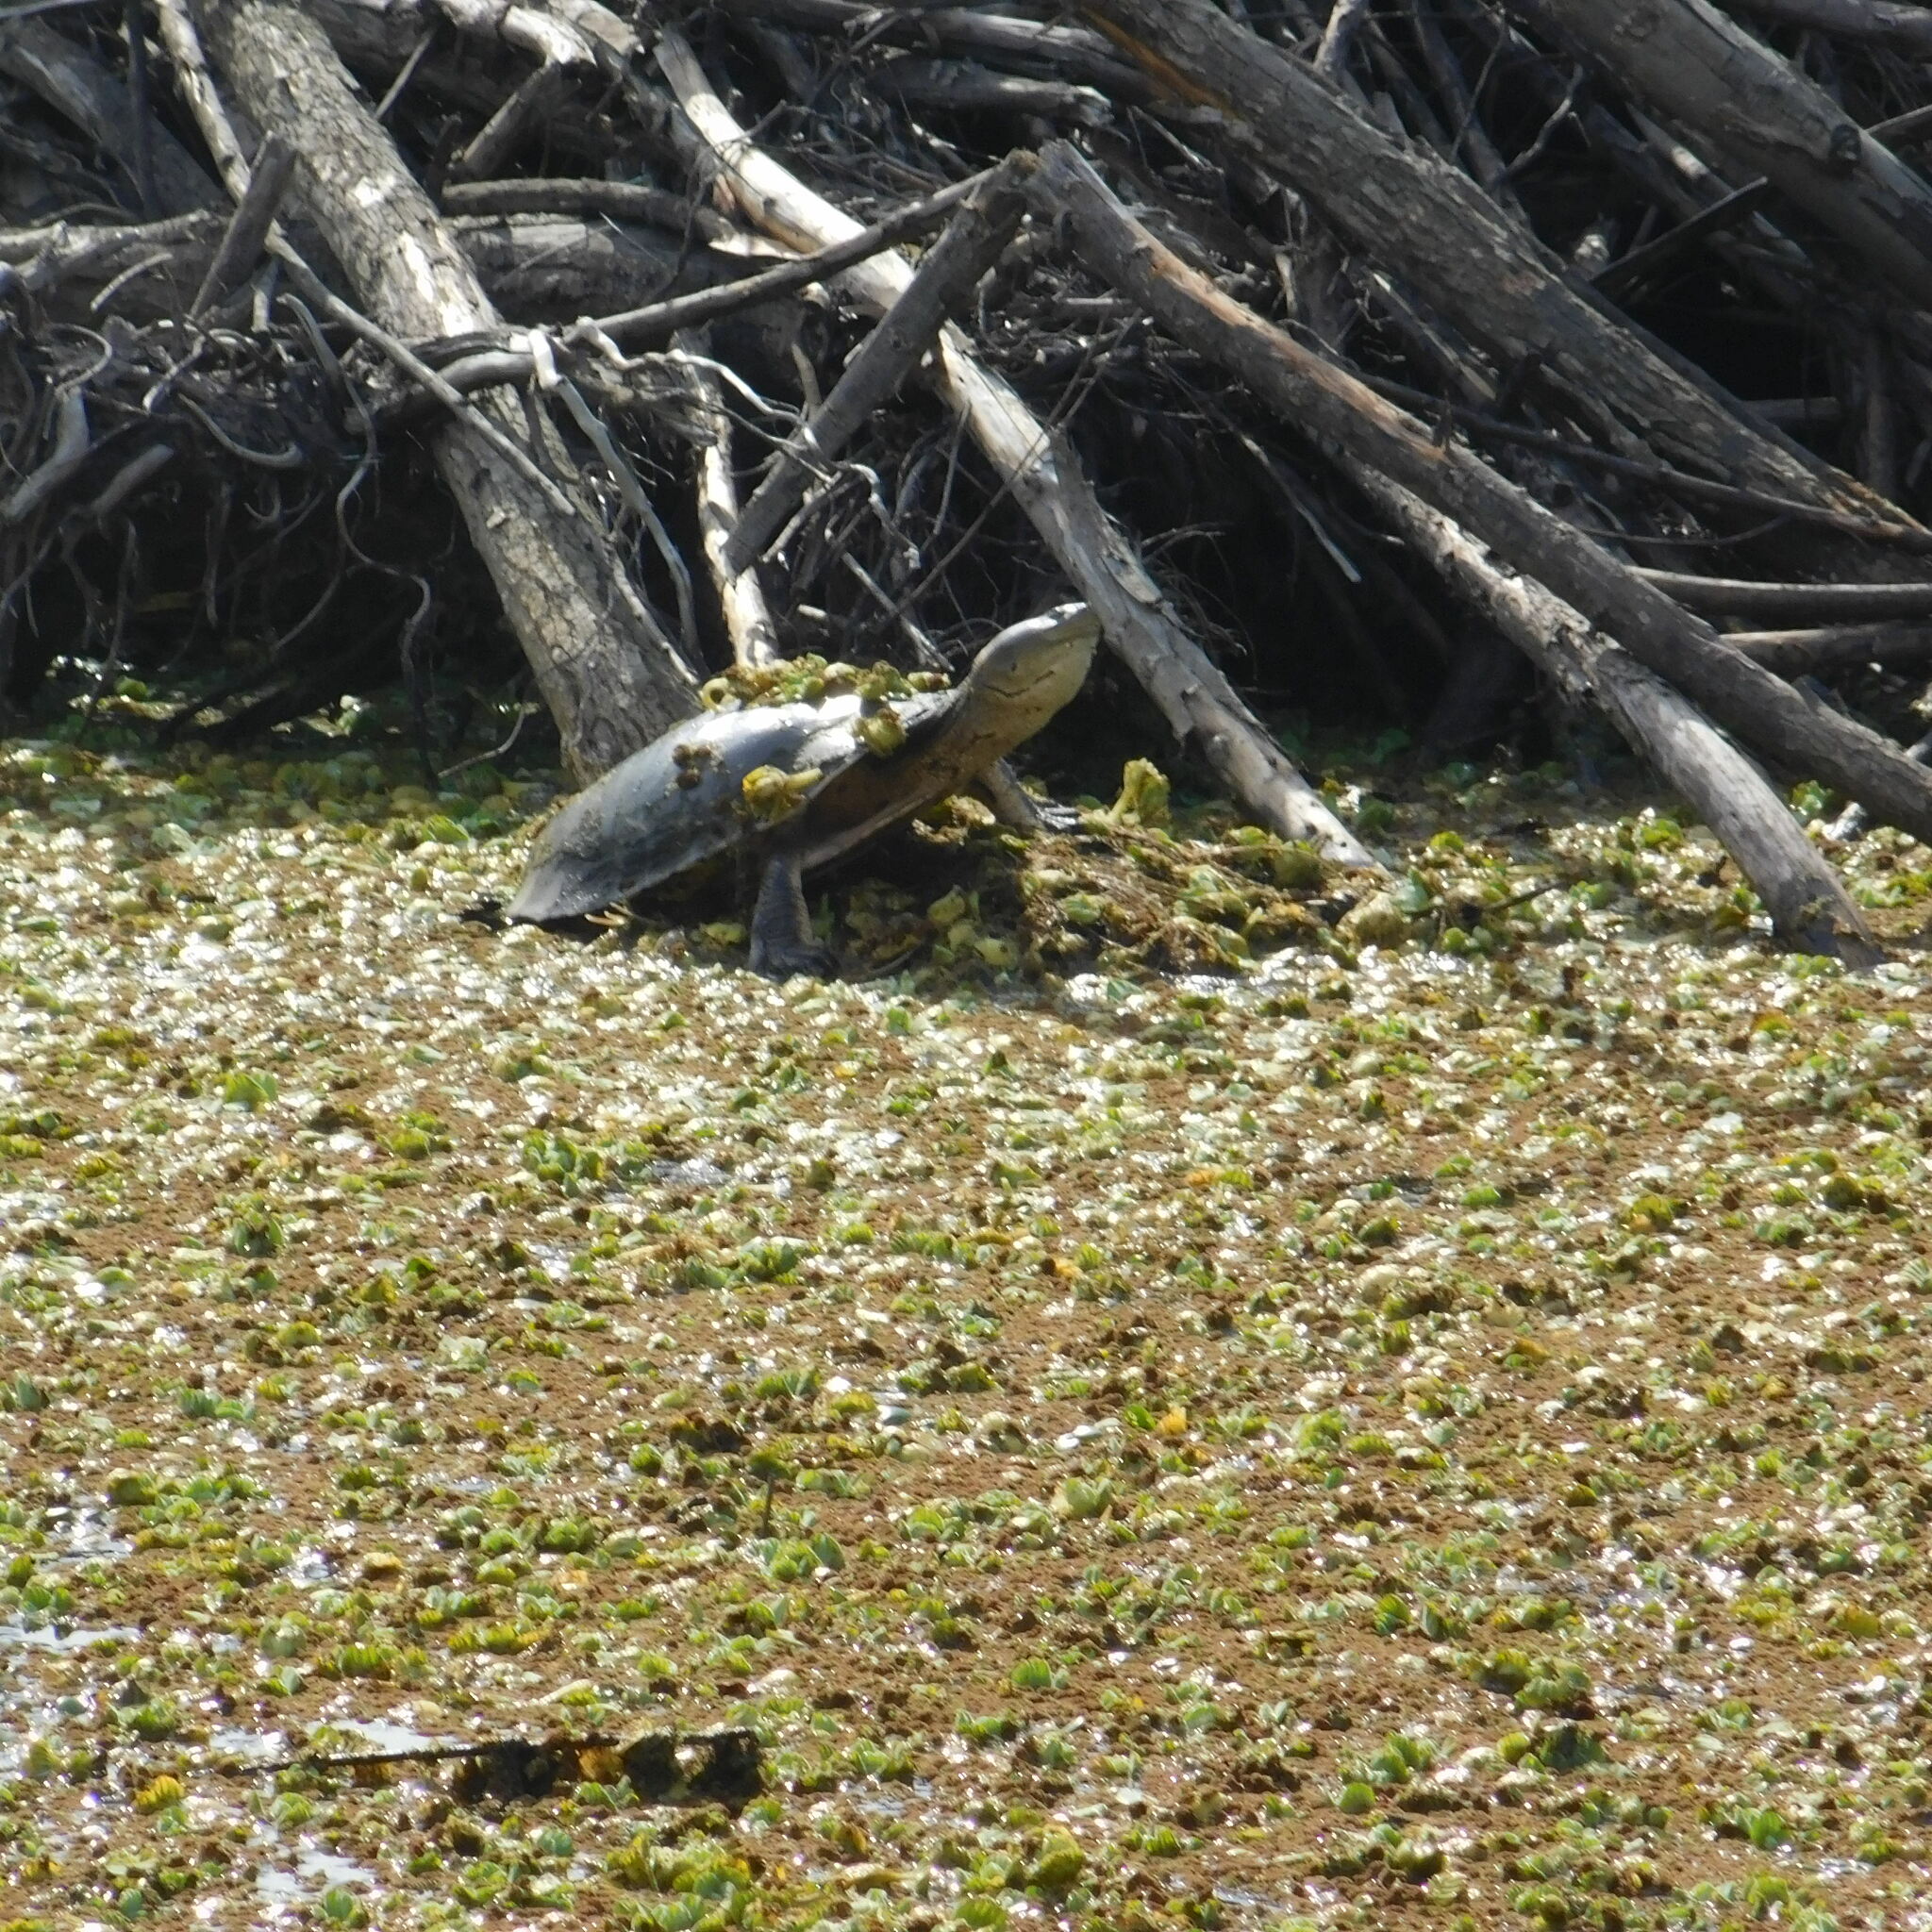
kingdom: Animalia
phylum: Chordata
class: Testudines
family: Chelidae
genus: Phrynops
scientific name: Phrynops hilarii
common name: Side-necked turtle of saint hillaire
